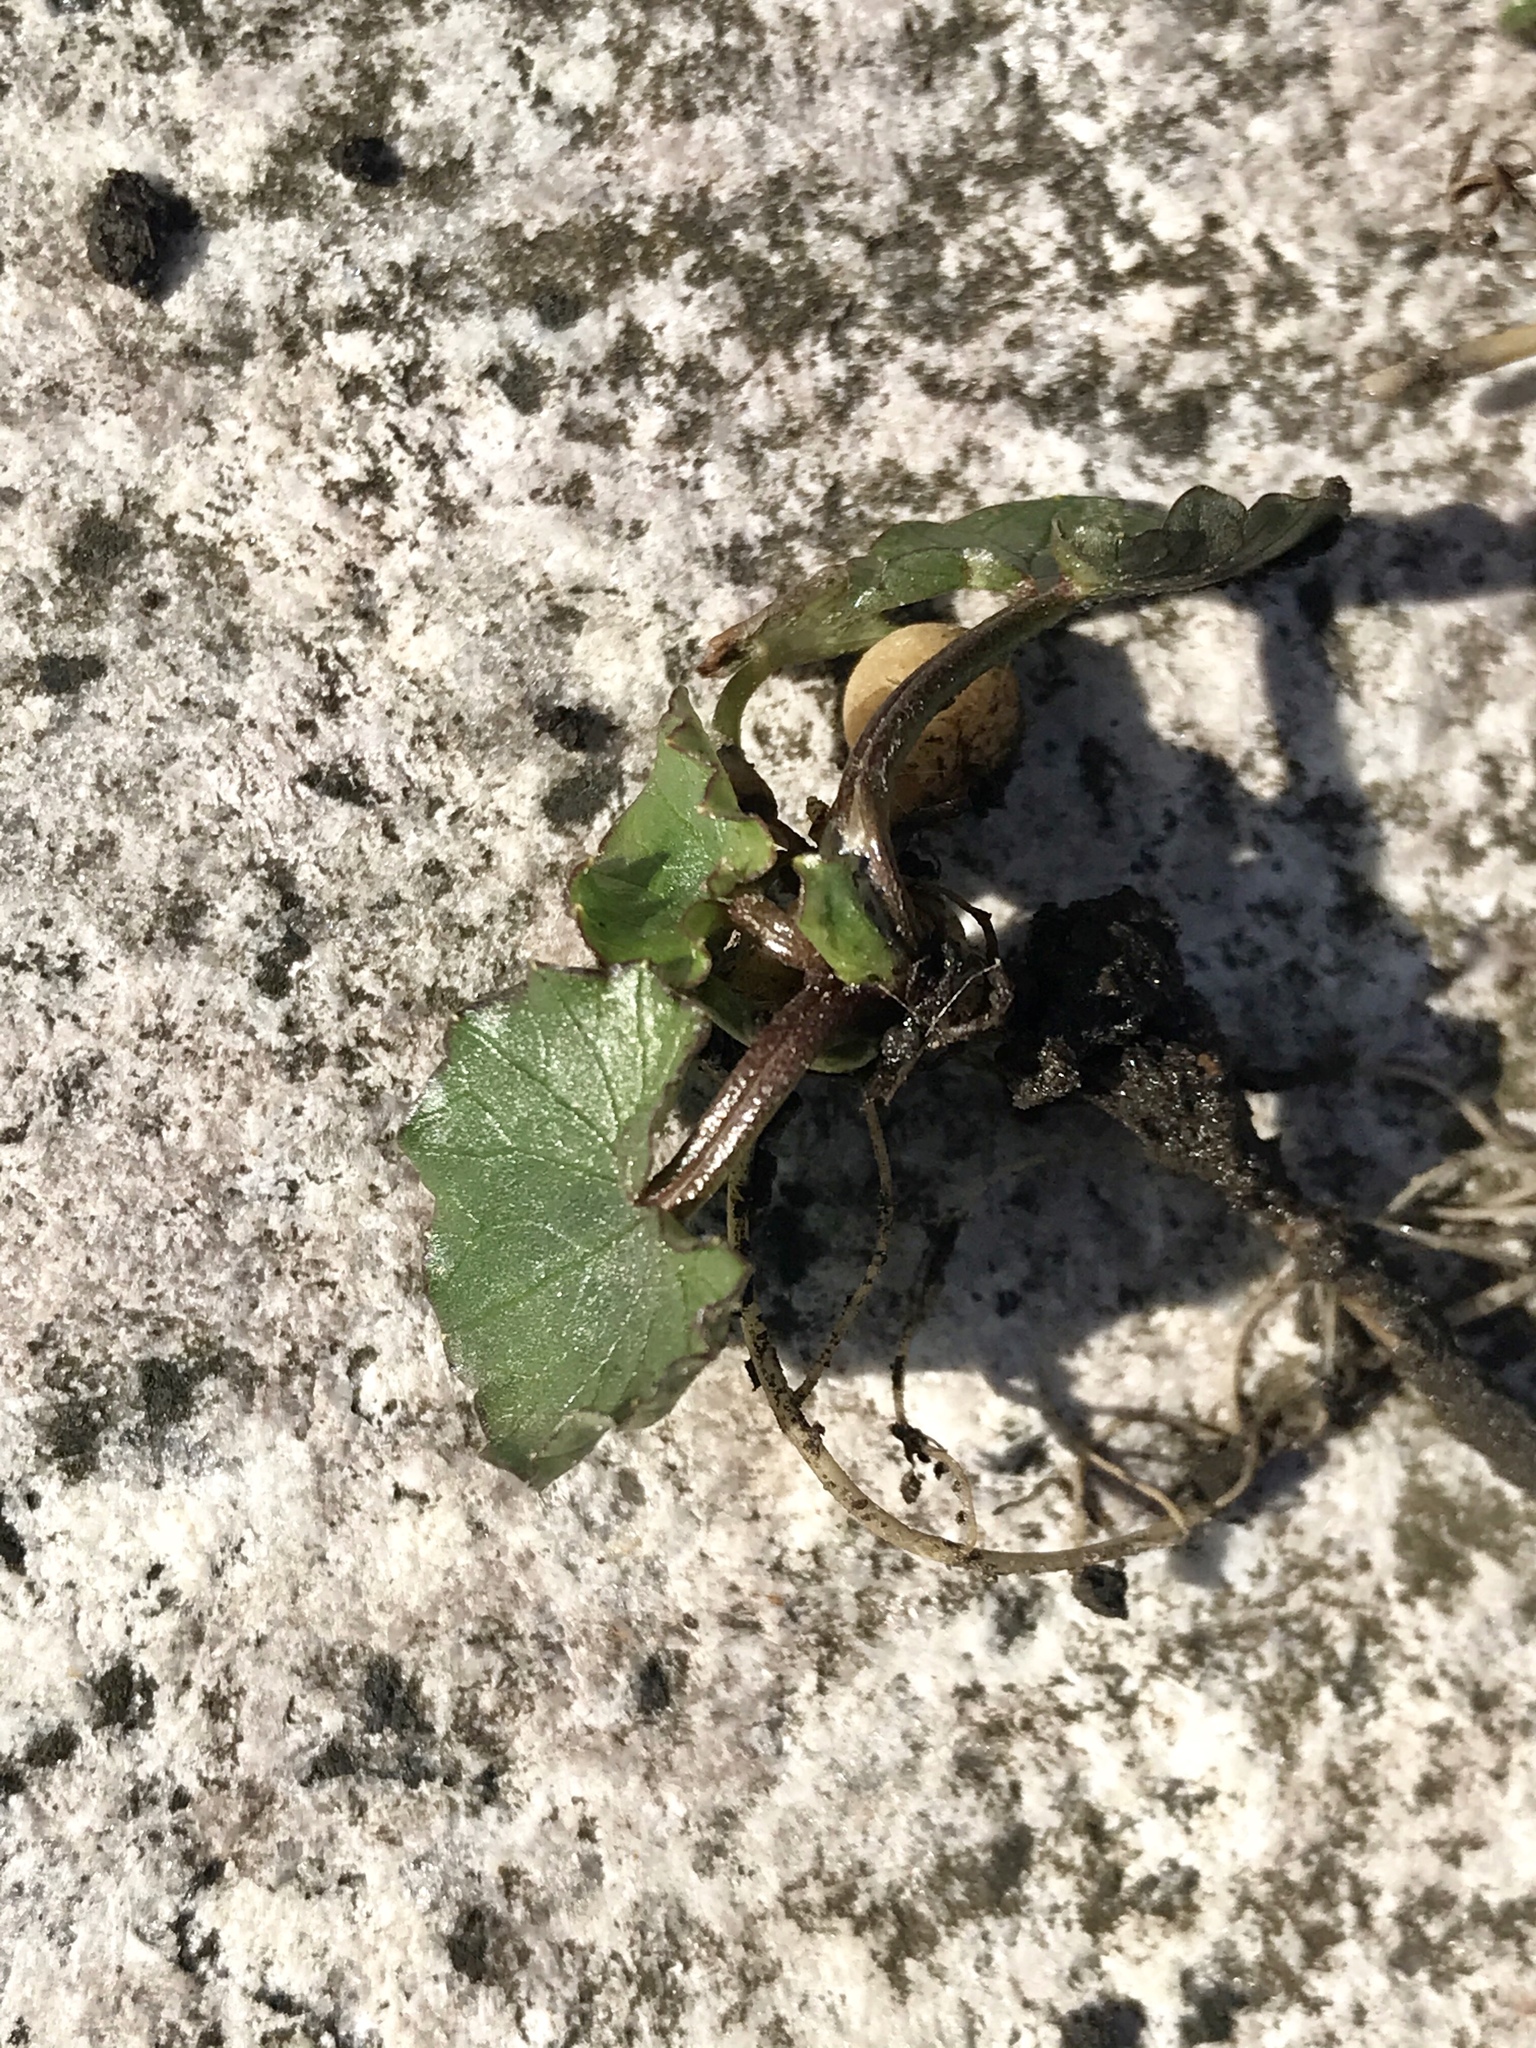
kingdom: Plantae
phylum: Tracheophyta
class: Magnoliopsida
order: Ranunculales
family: Ranunculaceae
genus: Ficaria
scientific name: Ficaria verna
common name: Lesser celandine
